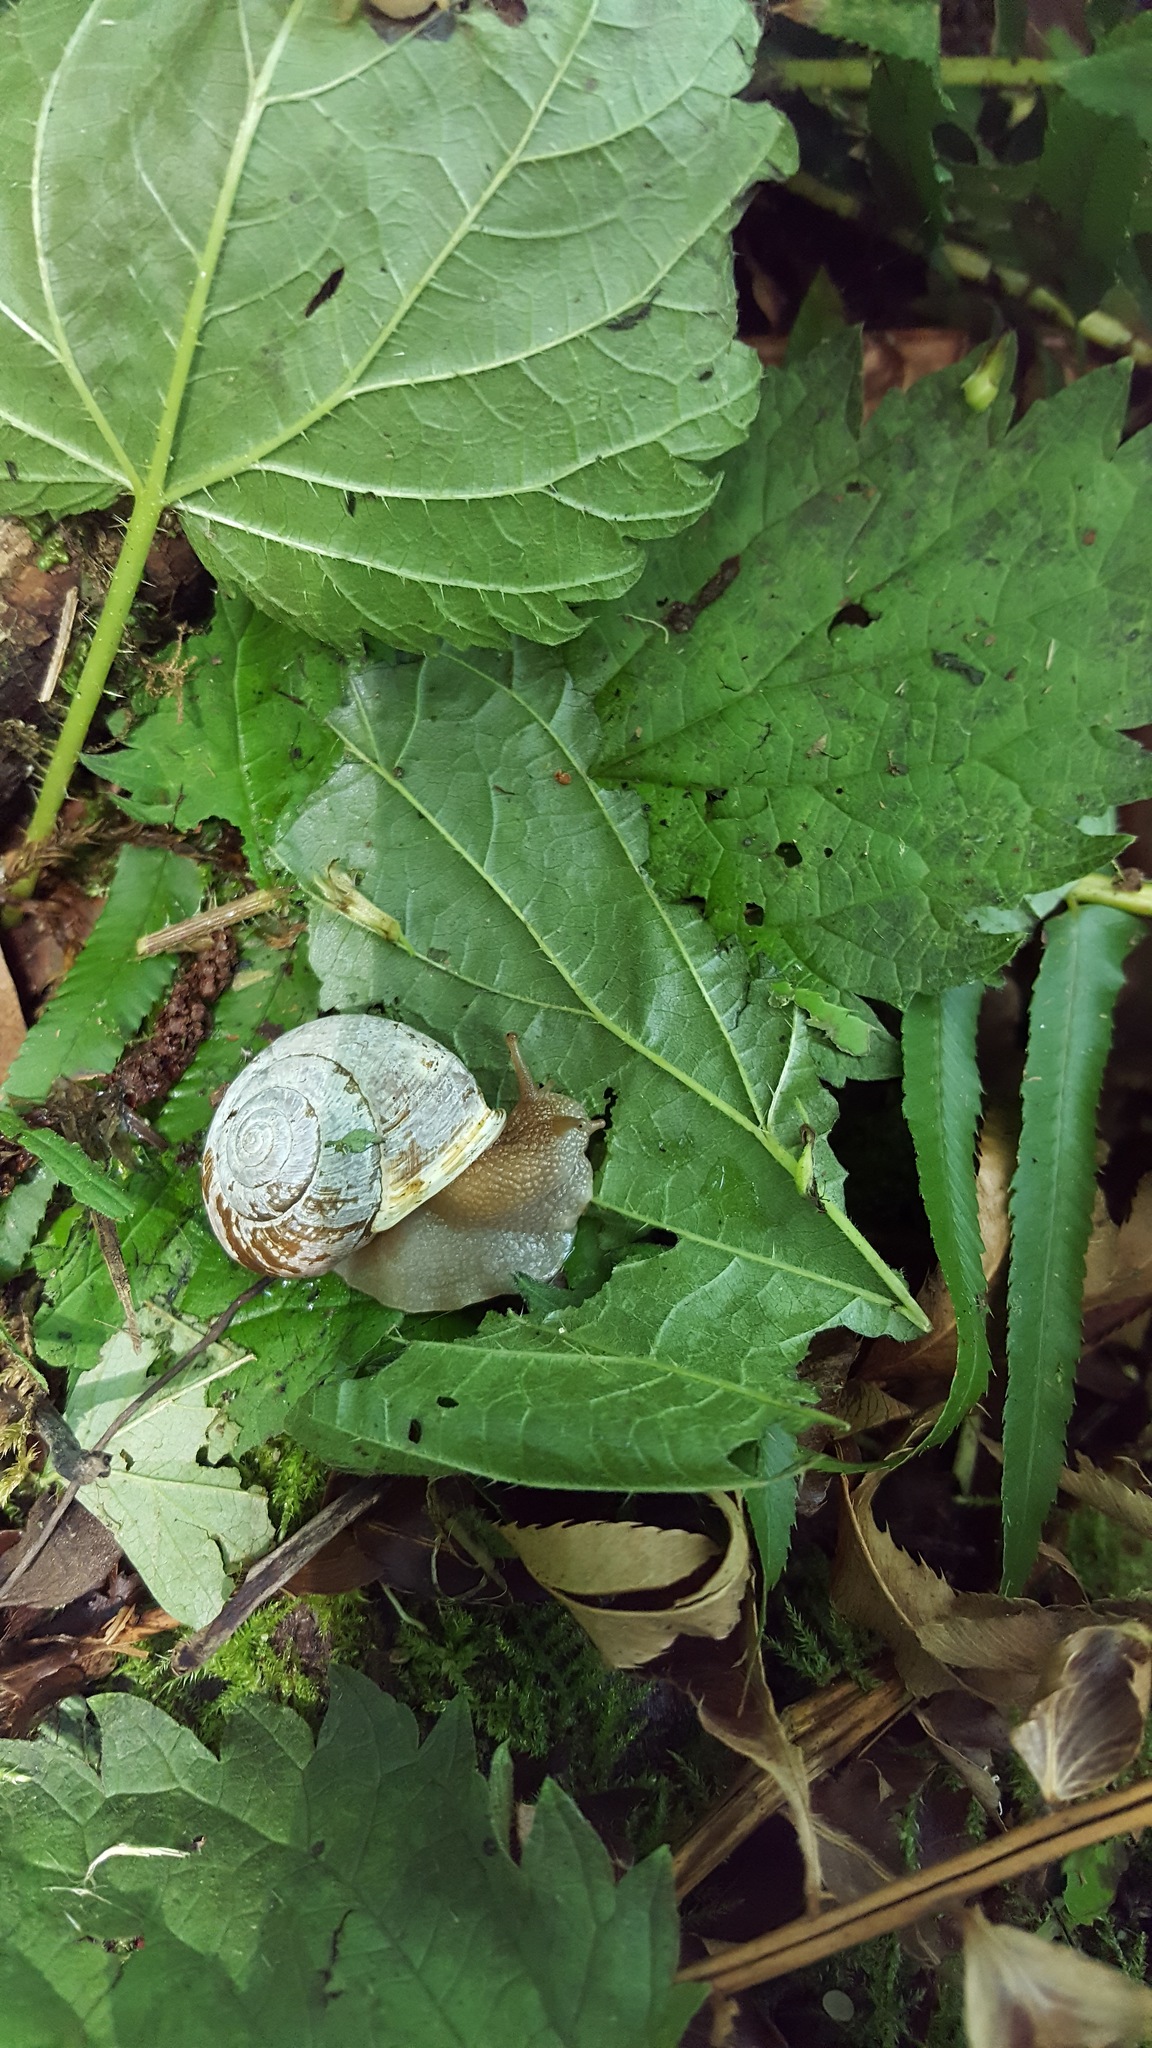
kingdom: Animalia
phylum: Mollusca
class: Gastropoda
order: Stylommatophora
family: Polygyridae
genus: Allogona
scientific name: Allogona townsendiana
